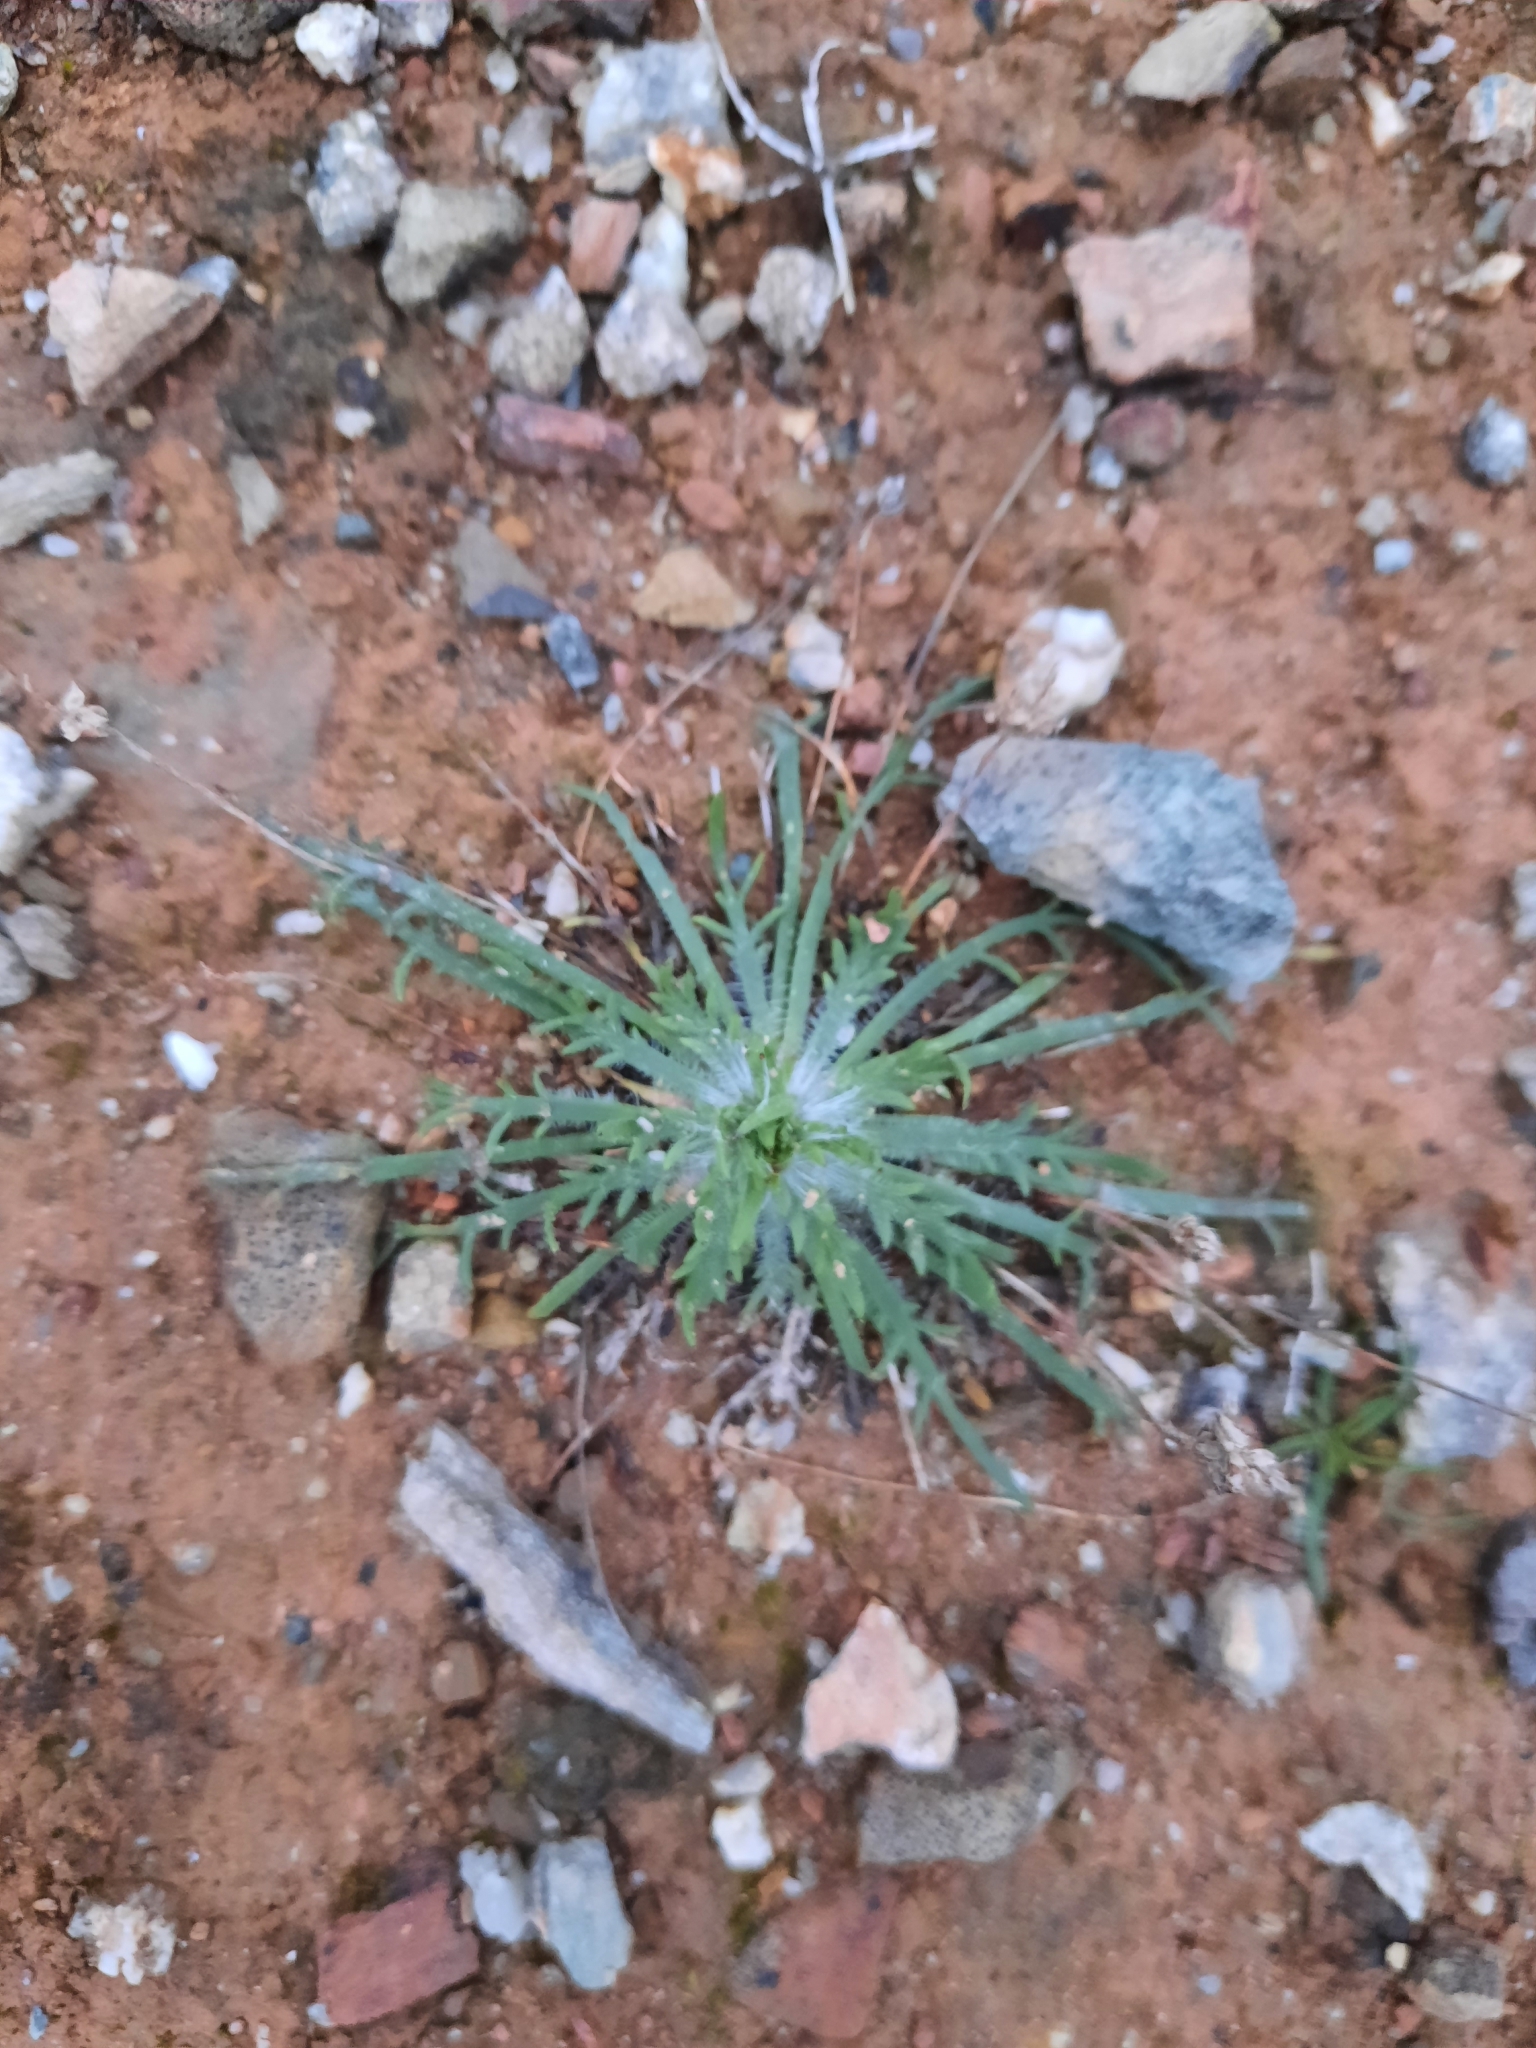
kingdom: Plantae
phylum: Tracheophyta
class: Magnoliopsida
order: Lamiales
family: Plantaginaceae
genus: Plantago
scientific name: Plantago coronopus
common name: Buck's-horn plantain
